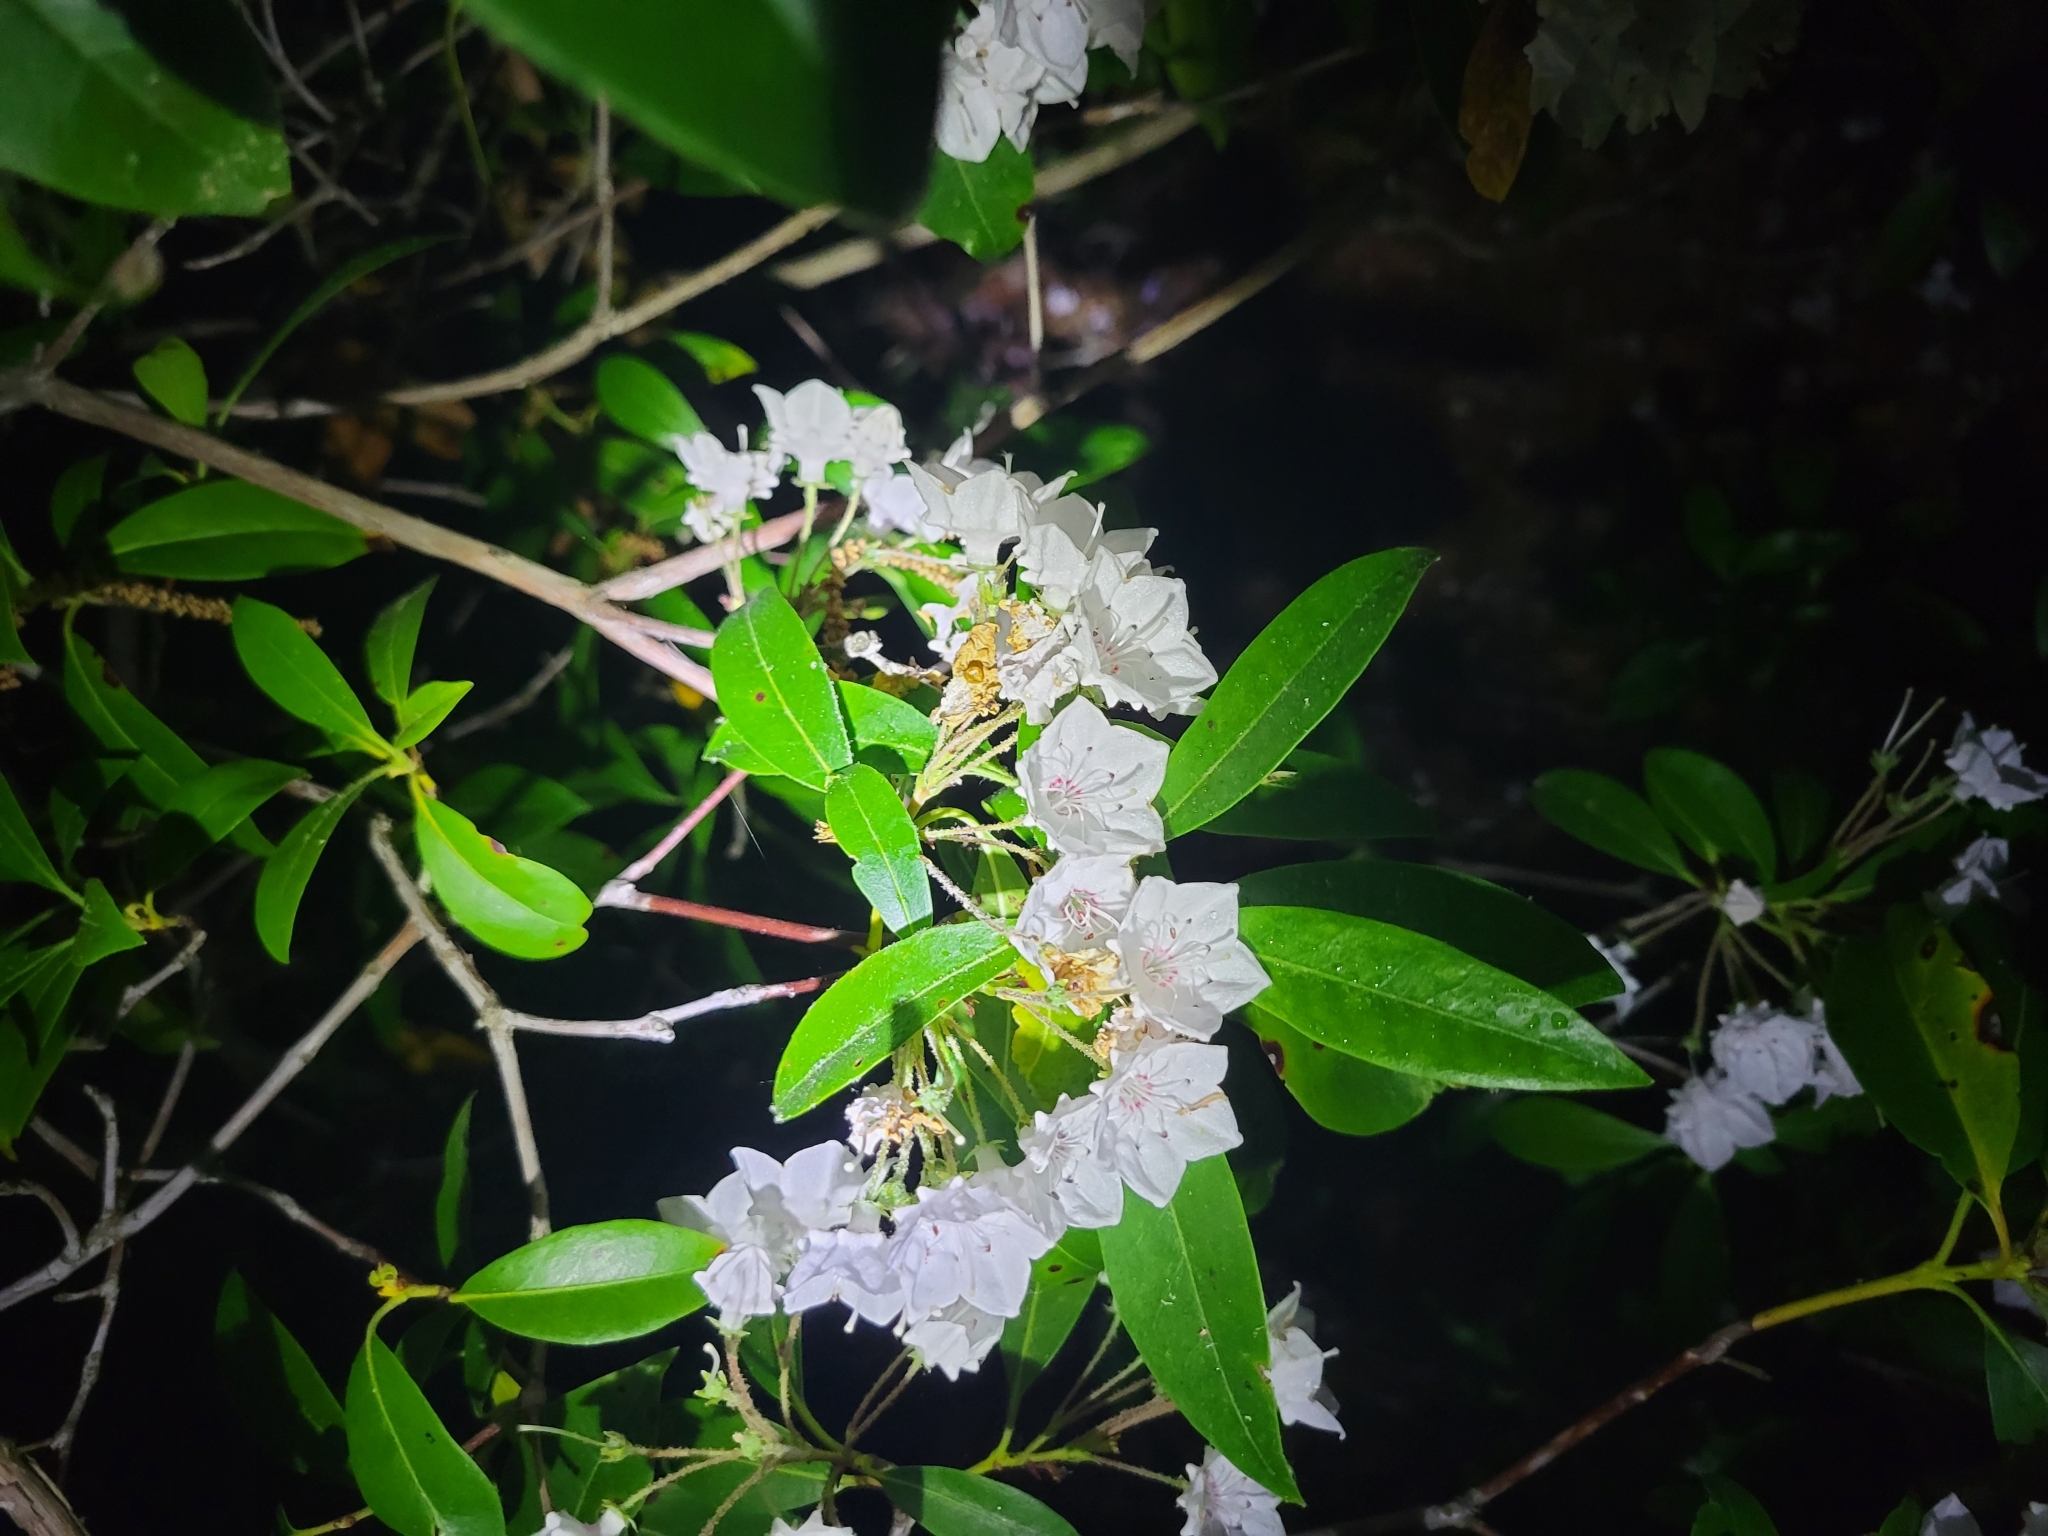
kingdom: Plantae
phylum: Tracheophyta
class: Magnoliopsida
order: Ericales
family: Ericaceae
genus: Kalmia
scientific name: Kalmia latifolia
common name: Mountain-laurel
